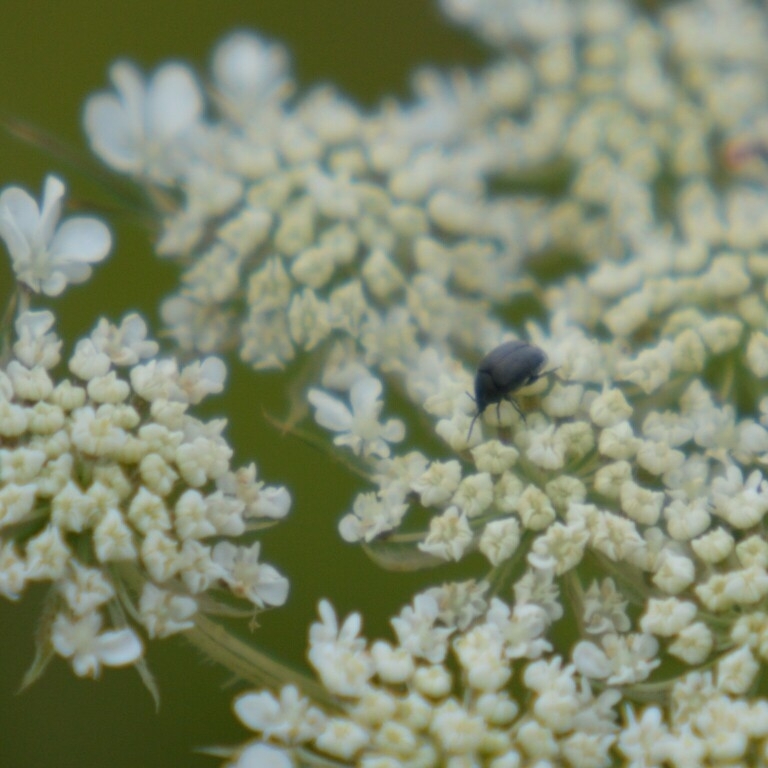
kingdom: Animalia
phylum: Arthropoda
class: Insecta
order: Coleoptera
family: Chrysomelidae
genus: Spermophagus
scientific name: Spermophagus
